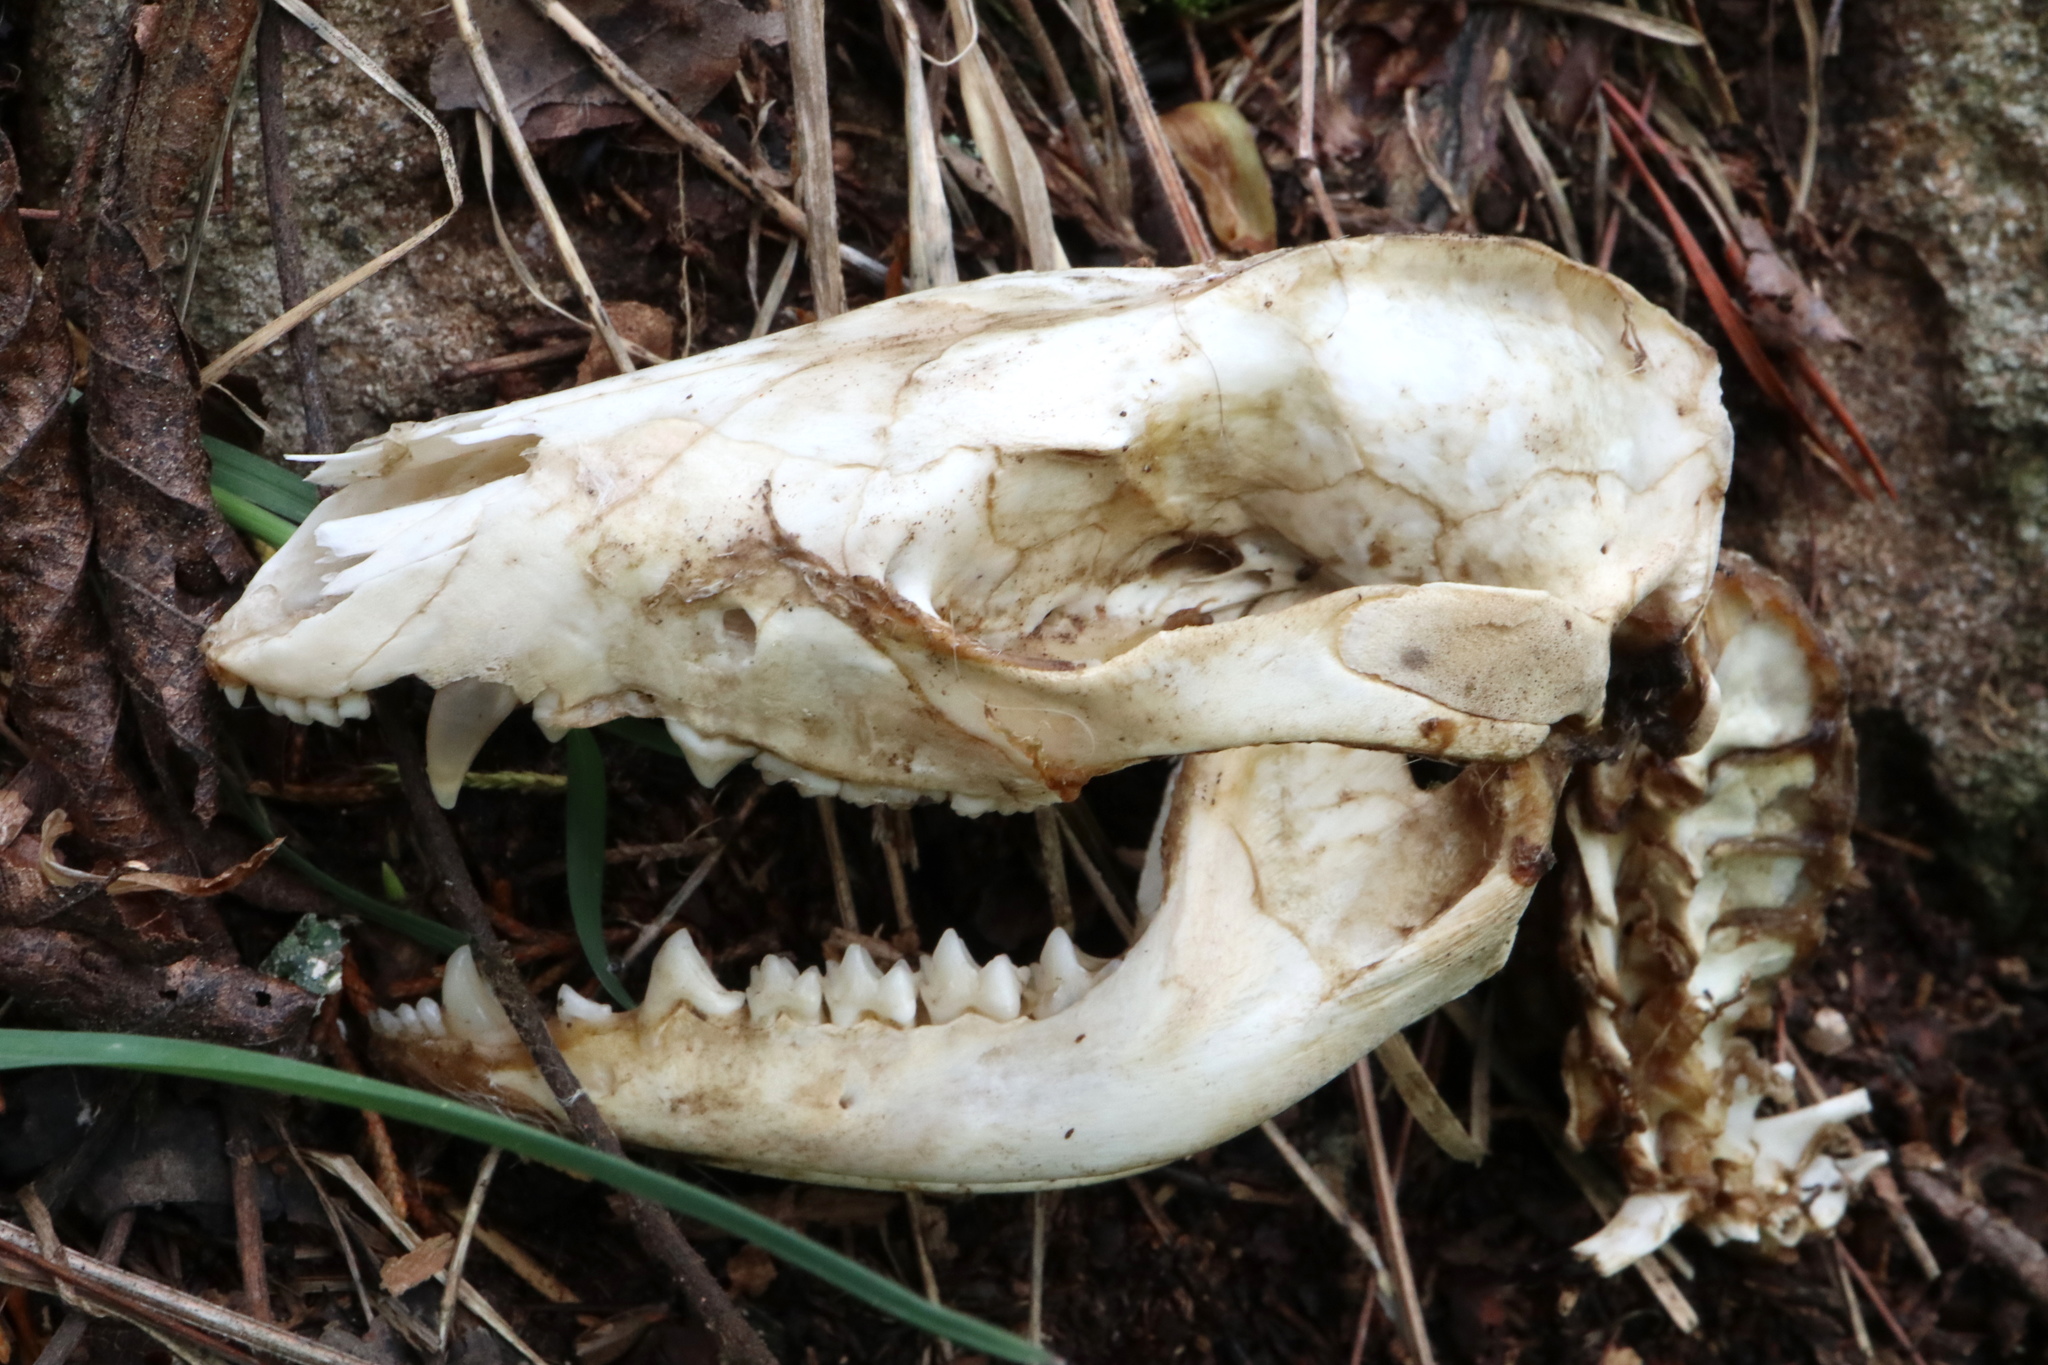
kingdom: Animalia
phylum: Chordata
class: Mammalia
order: Didelphimorphia
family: Didelphidae
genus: Didelphis
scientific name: Didelphis virginiana
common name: Virginia opossum
